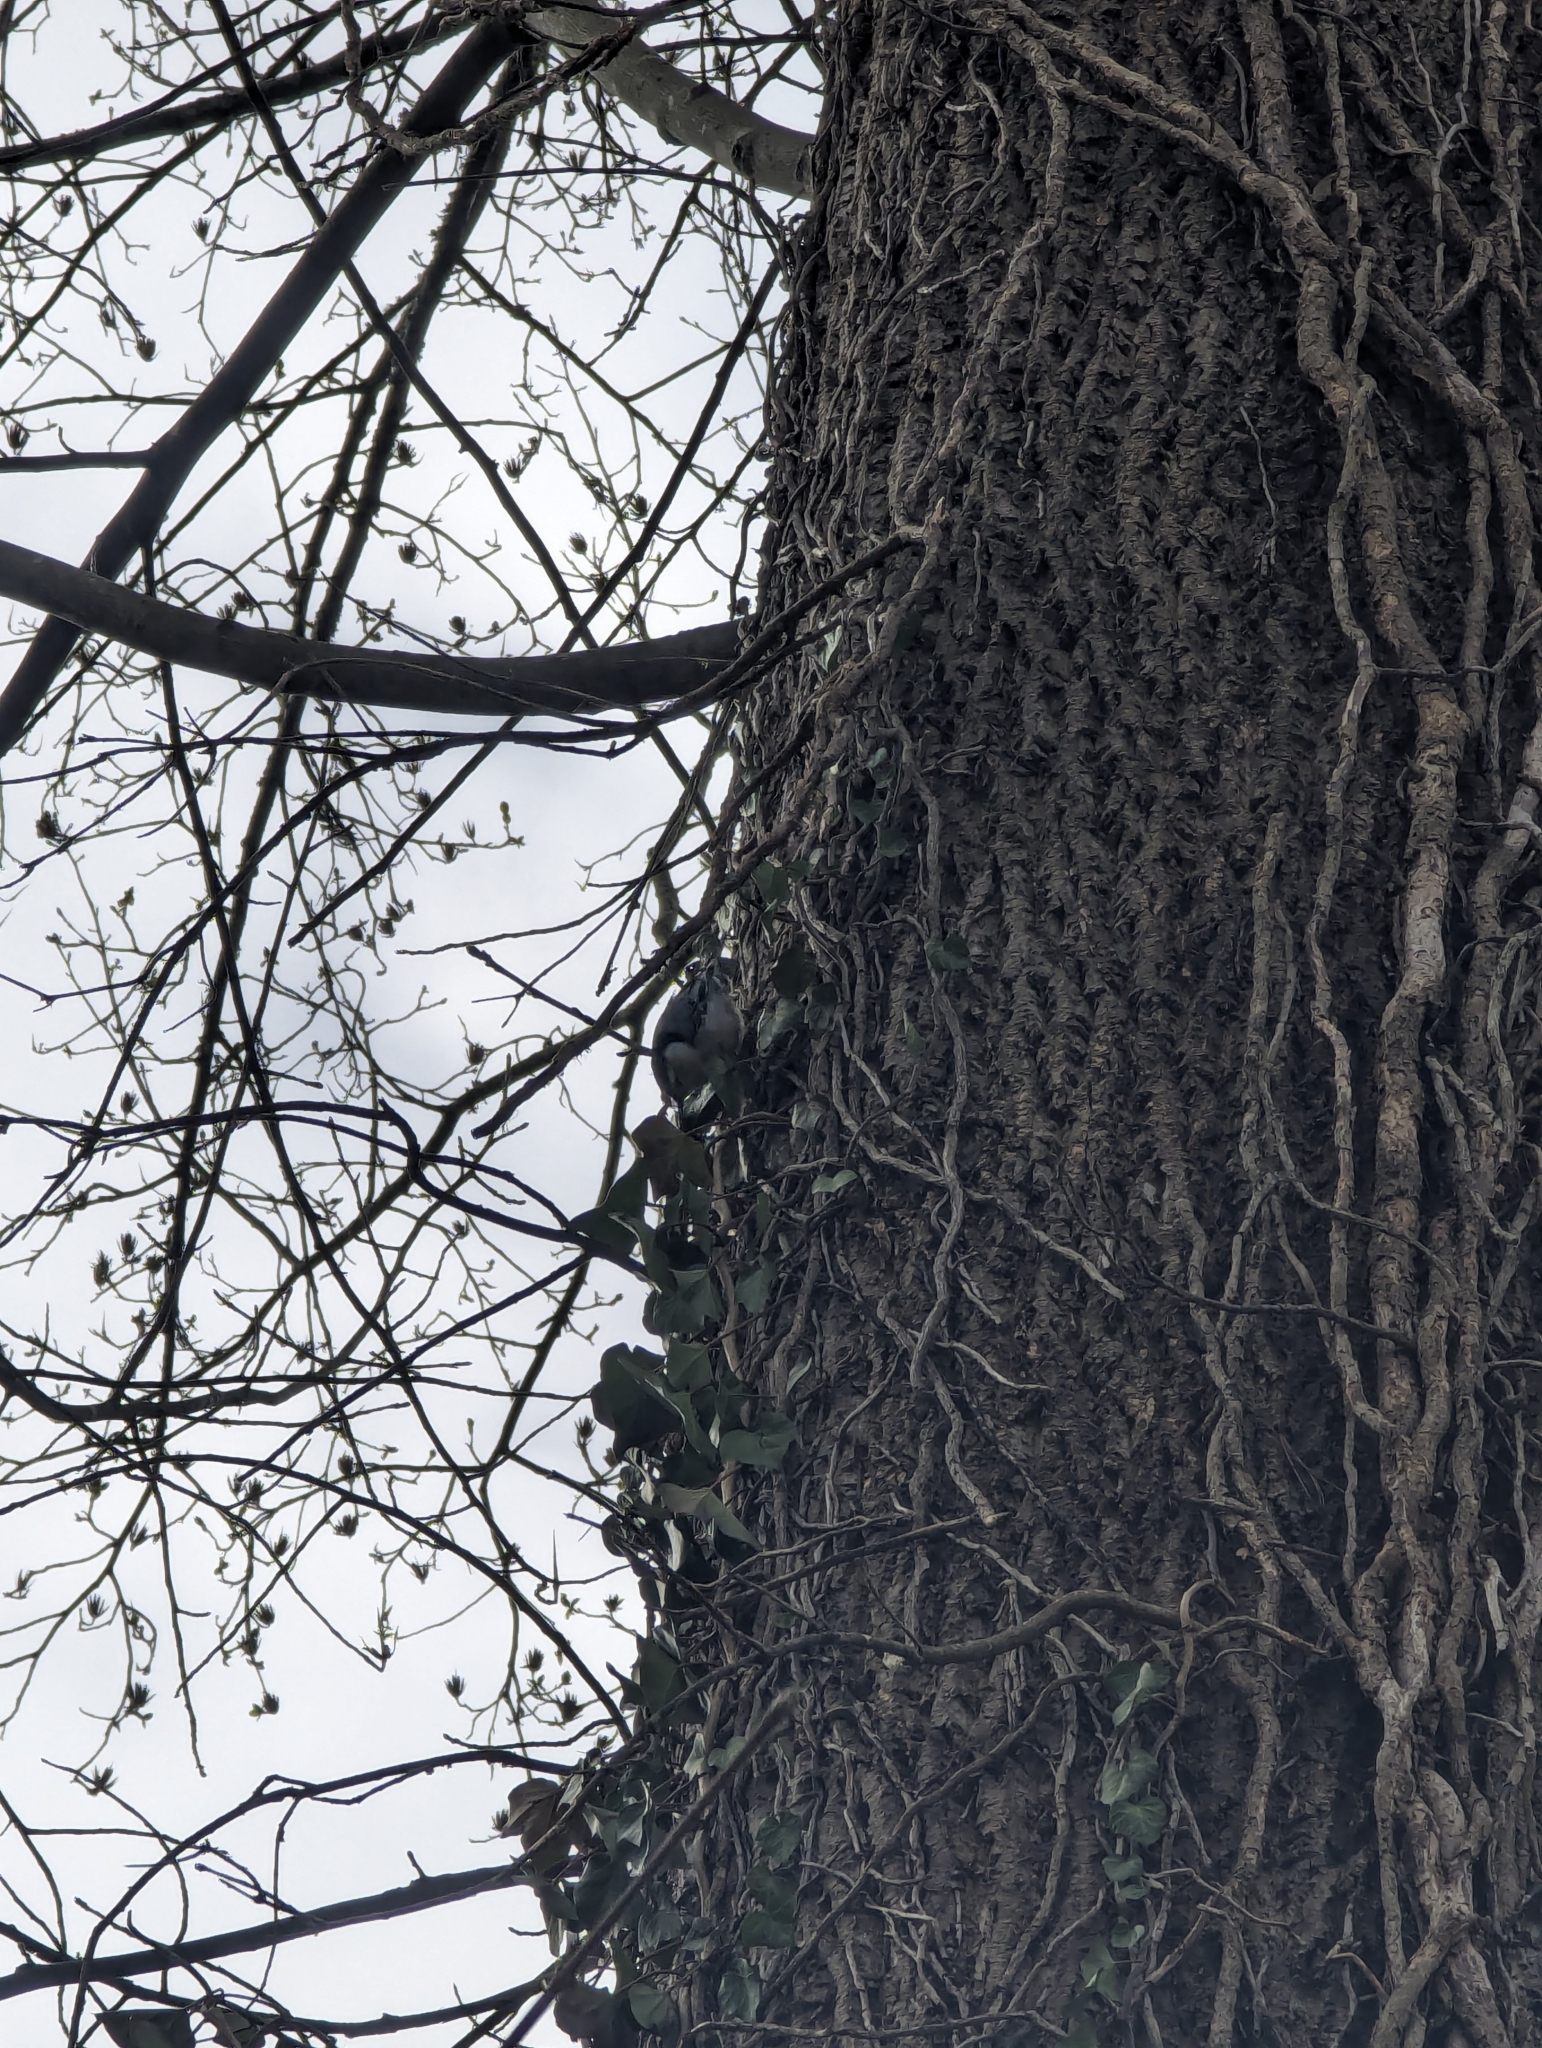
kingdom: Animalia
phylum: Chordata
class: Aves
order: Passeriformes
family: Sittidae
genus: Sitta
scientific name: Sitta carolinensis
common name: White-breasted nuthatch
